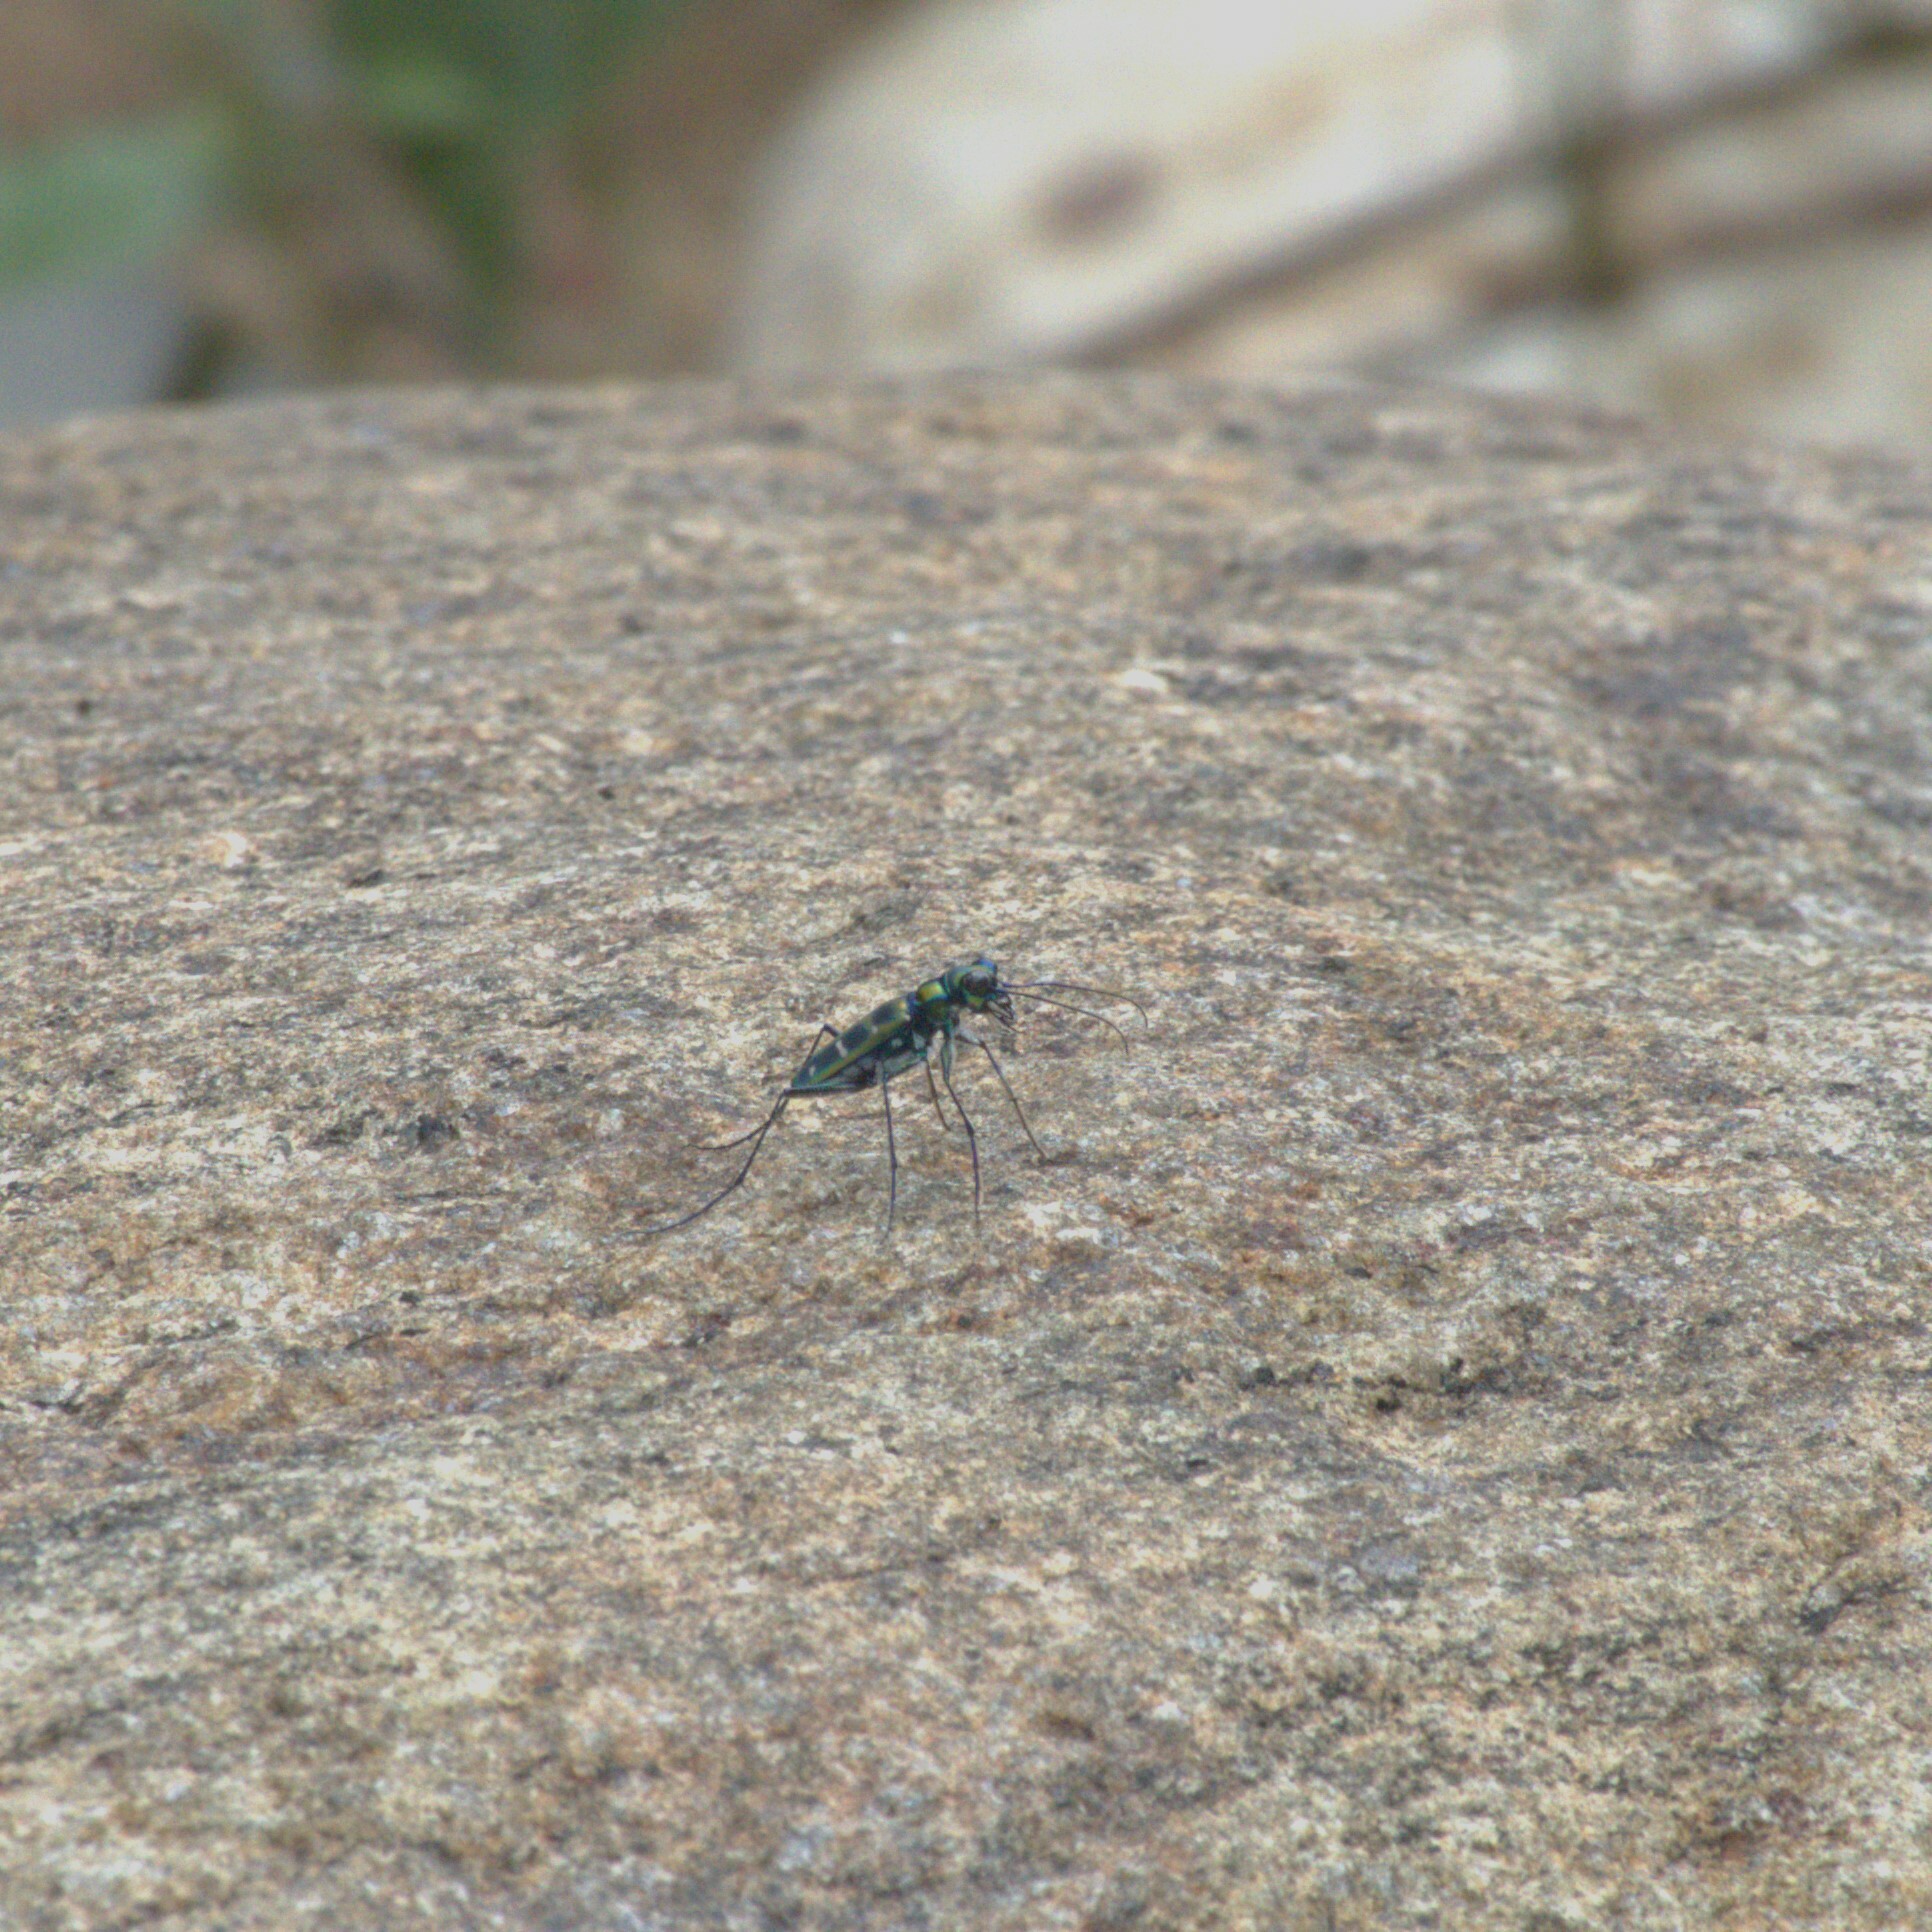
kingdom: Animalia
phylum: Arthropoda
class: Insecta
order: Coleoptera
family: Carabidae
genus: Cicindela
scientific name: Cicindela barmanica
